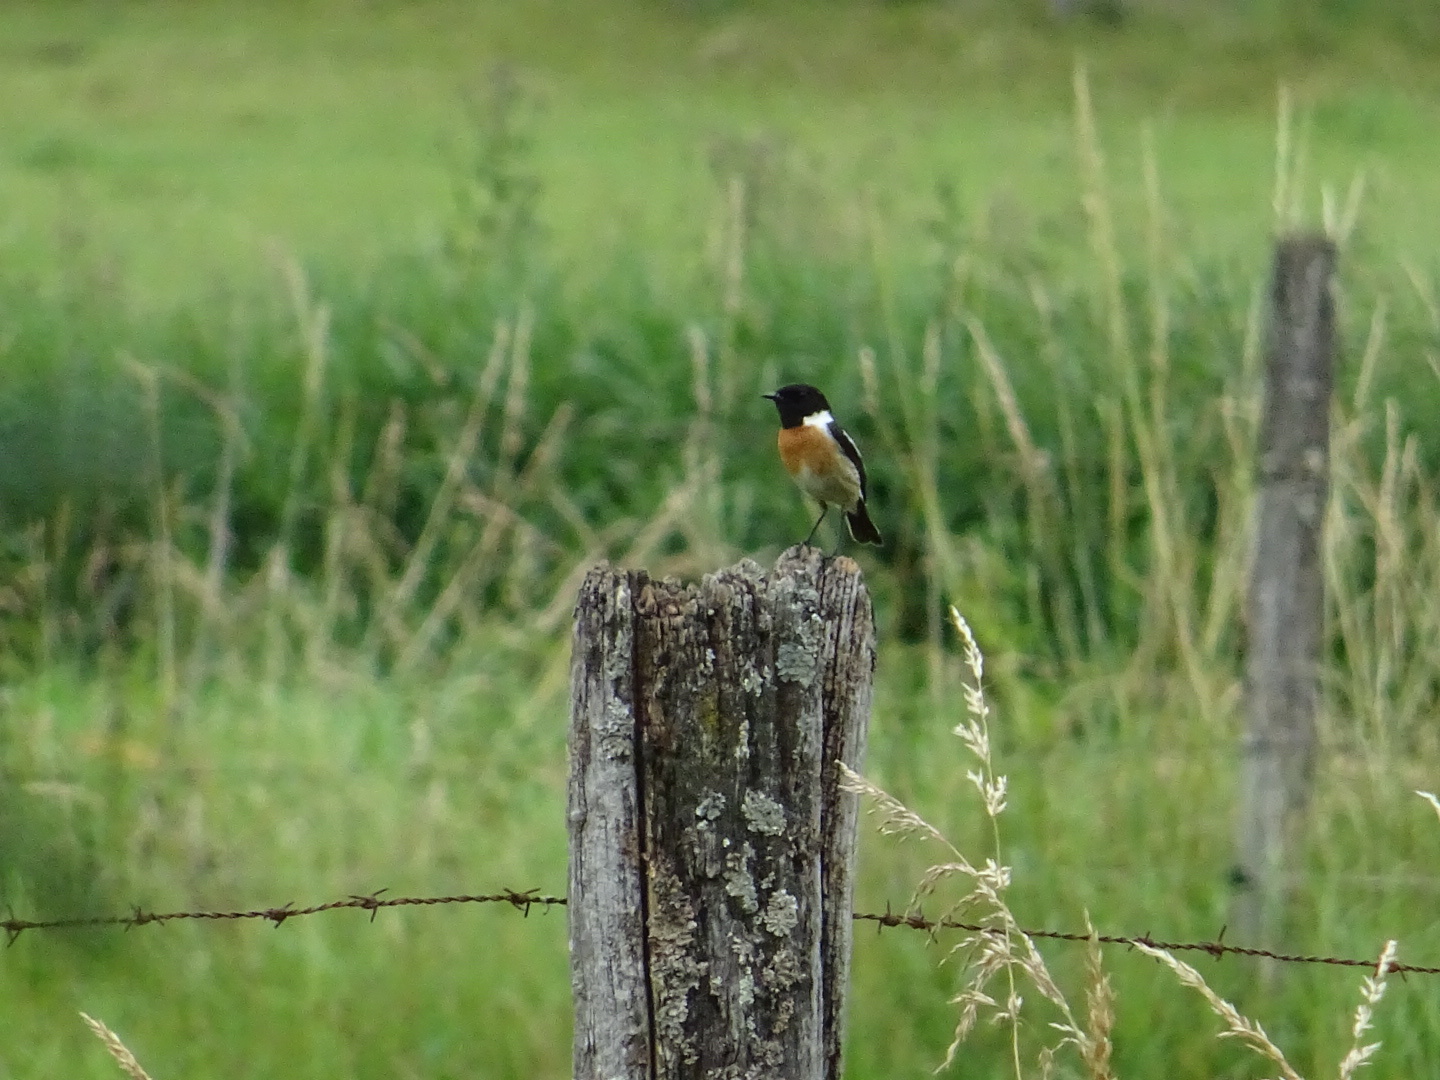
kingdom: Animalia
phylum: Chordata
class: Aves
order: Passeriformes
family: Muscicapidae
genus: Saxicola
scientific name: Saxicola rubicola
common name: European stonechat
